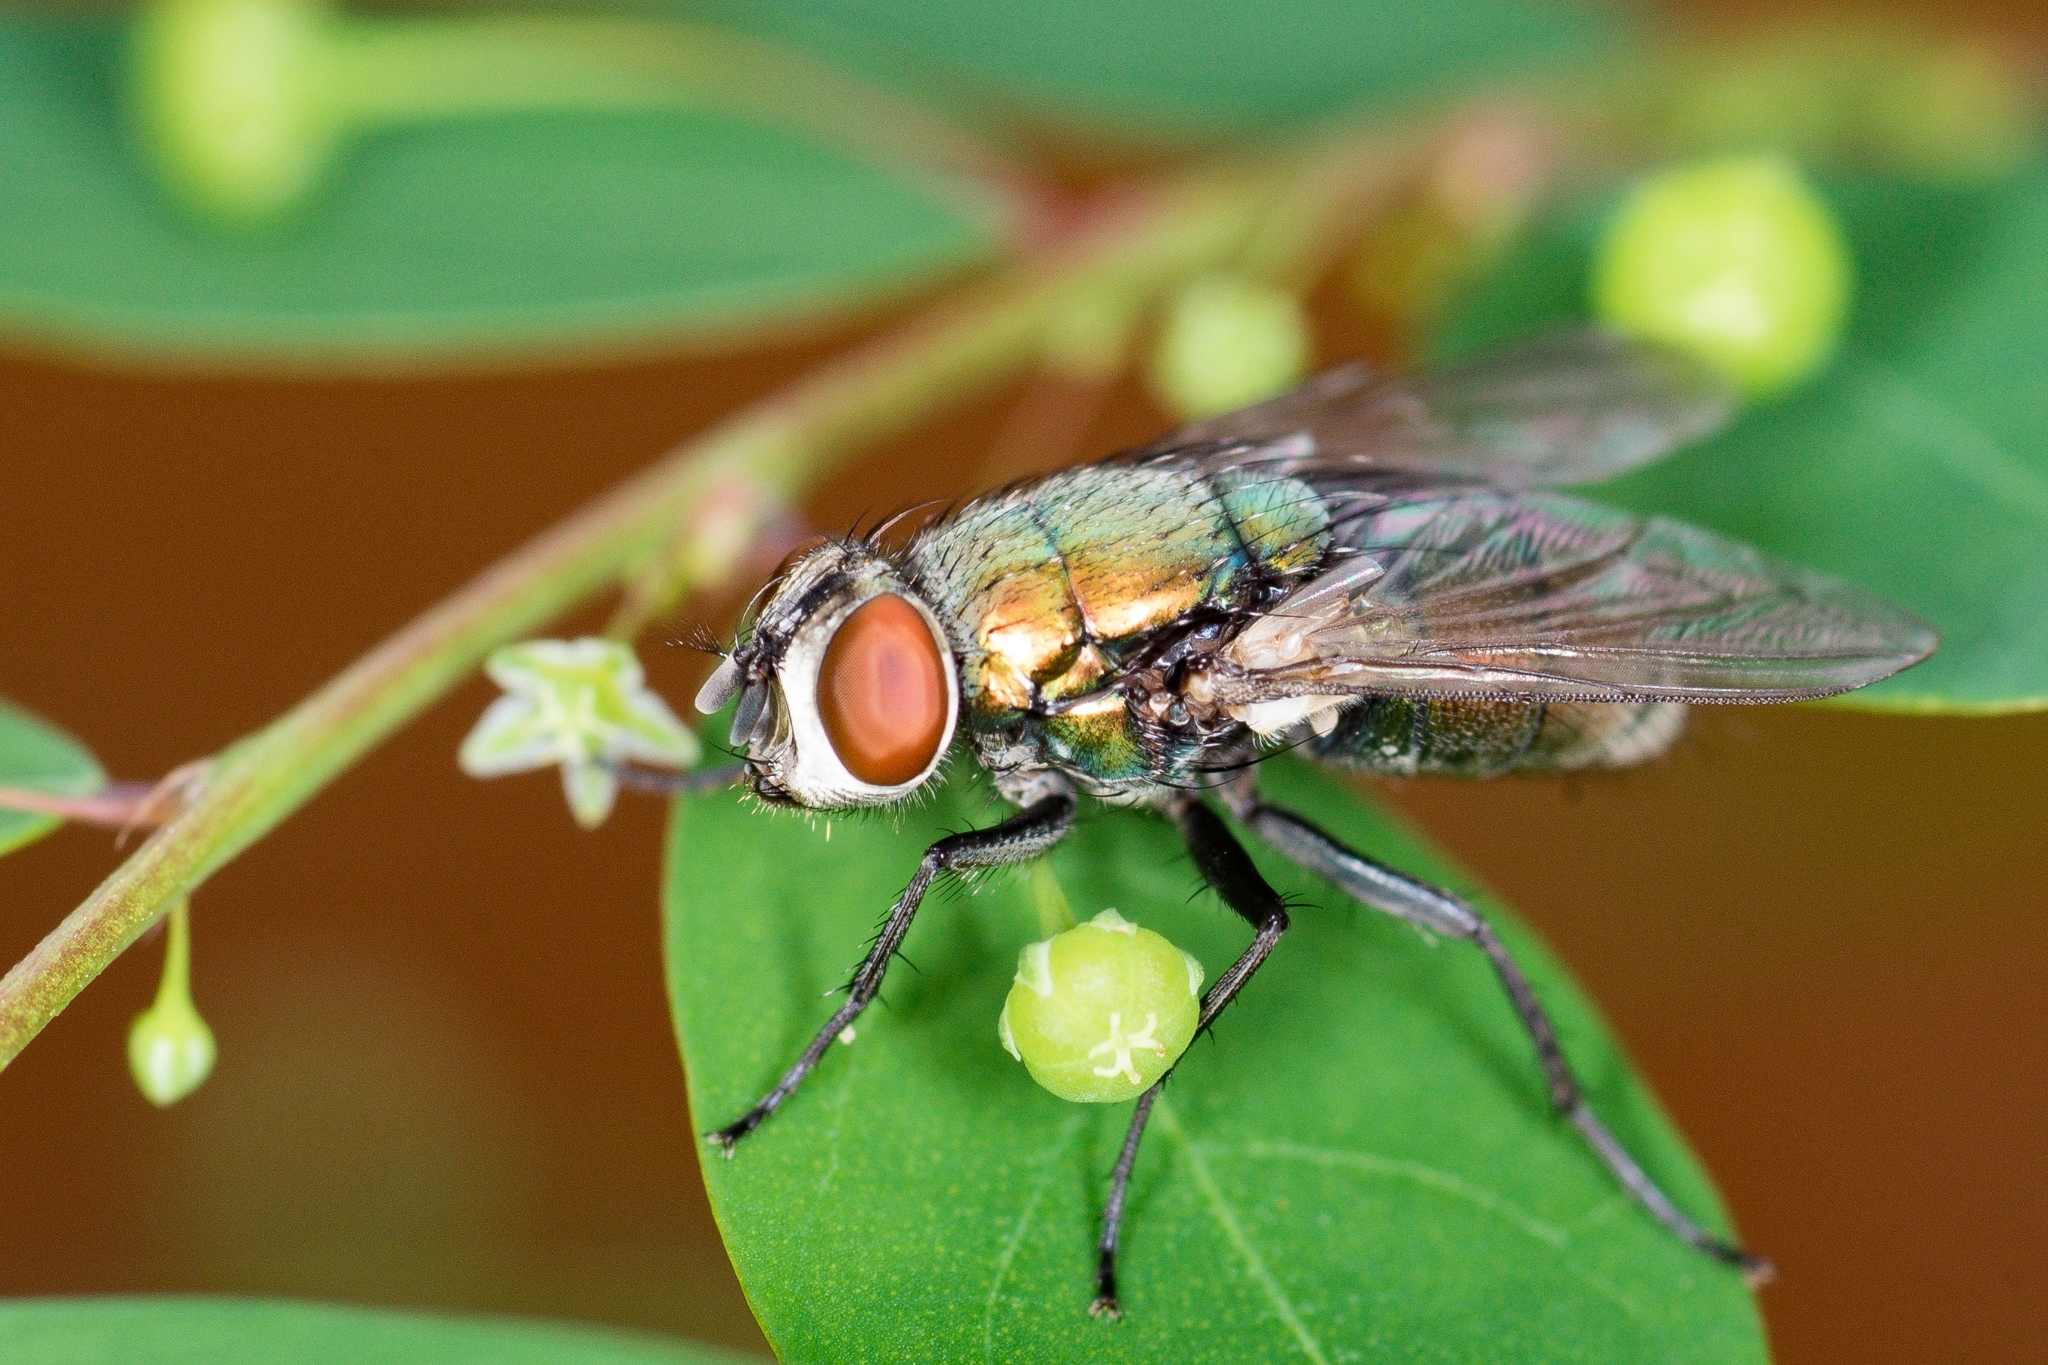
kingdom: Animalia
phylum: Arthropoda
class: Insecta
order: Diptera
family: Calliphoridae
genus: Lucilia
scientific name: Lucilia cuprina
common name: Sheep blow fly
